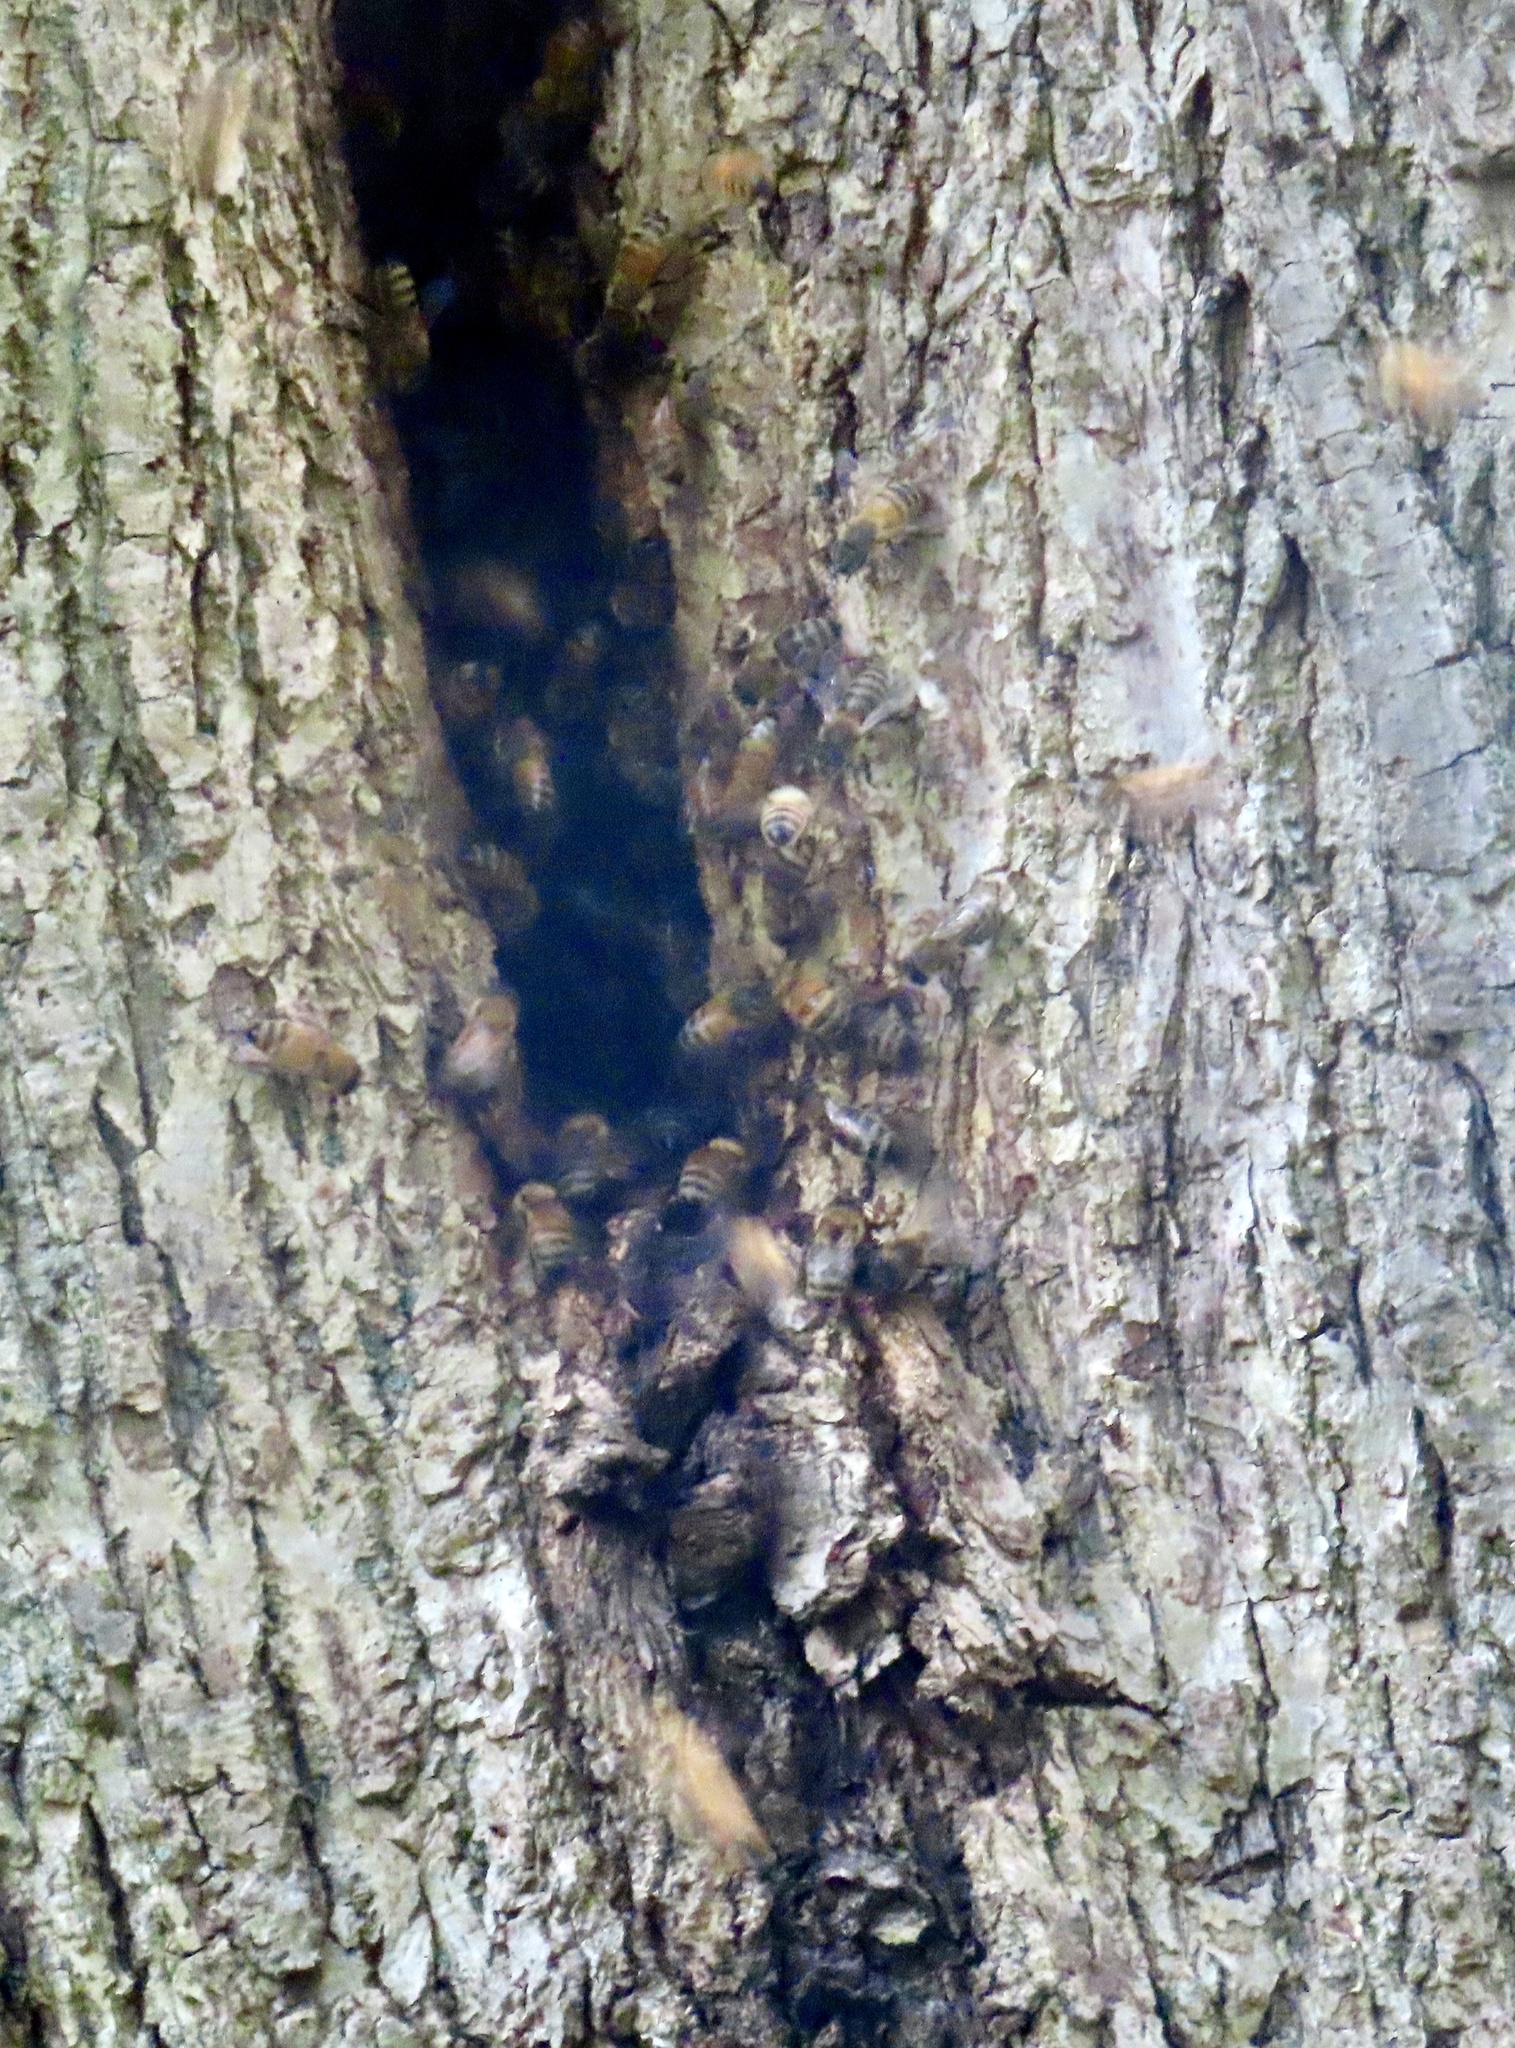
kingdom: Animalia
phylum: Arthropoda
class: Insecta
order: Hymenoptera
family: Apidae
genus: Apis
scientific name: Apis mellifera
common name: Honey bee
